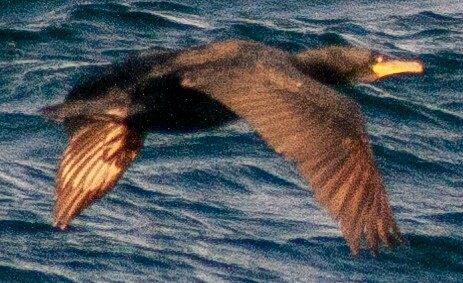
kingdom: Animalia
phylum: Chordata
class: Aves
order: Suliformes
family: Phalacrocoracidae
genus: Phalacrocorax
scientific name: Phalacrocorax carbo
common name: Great cormorant
